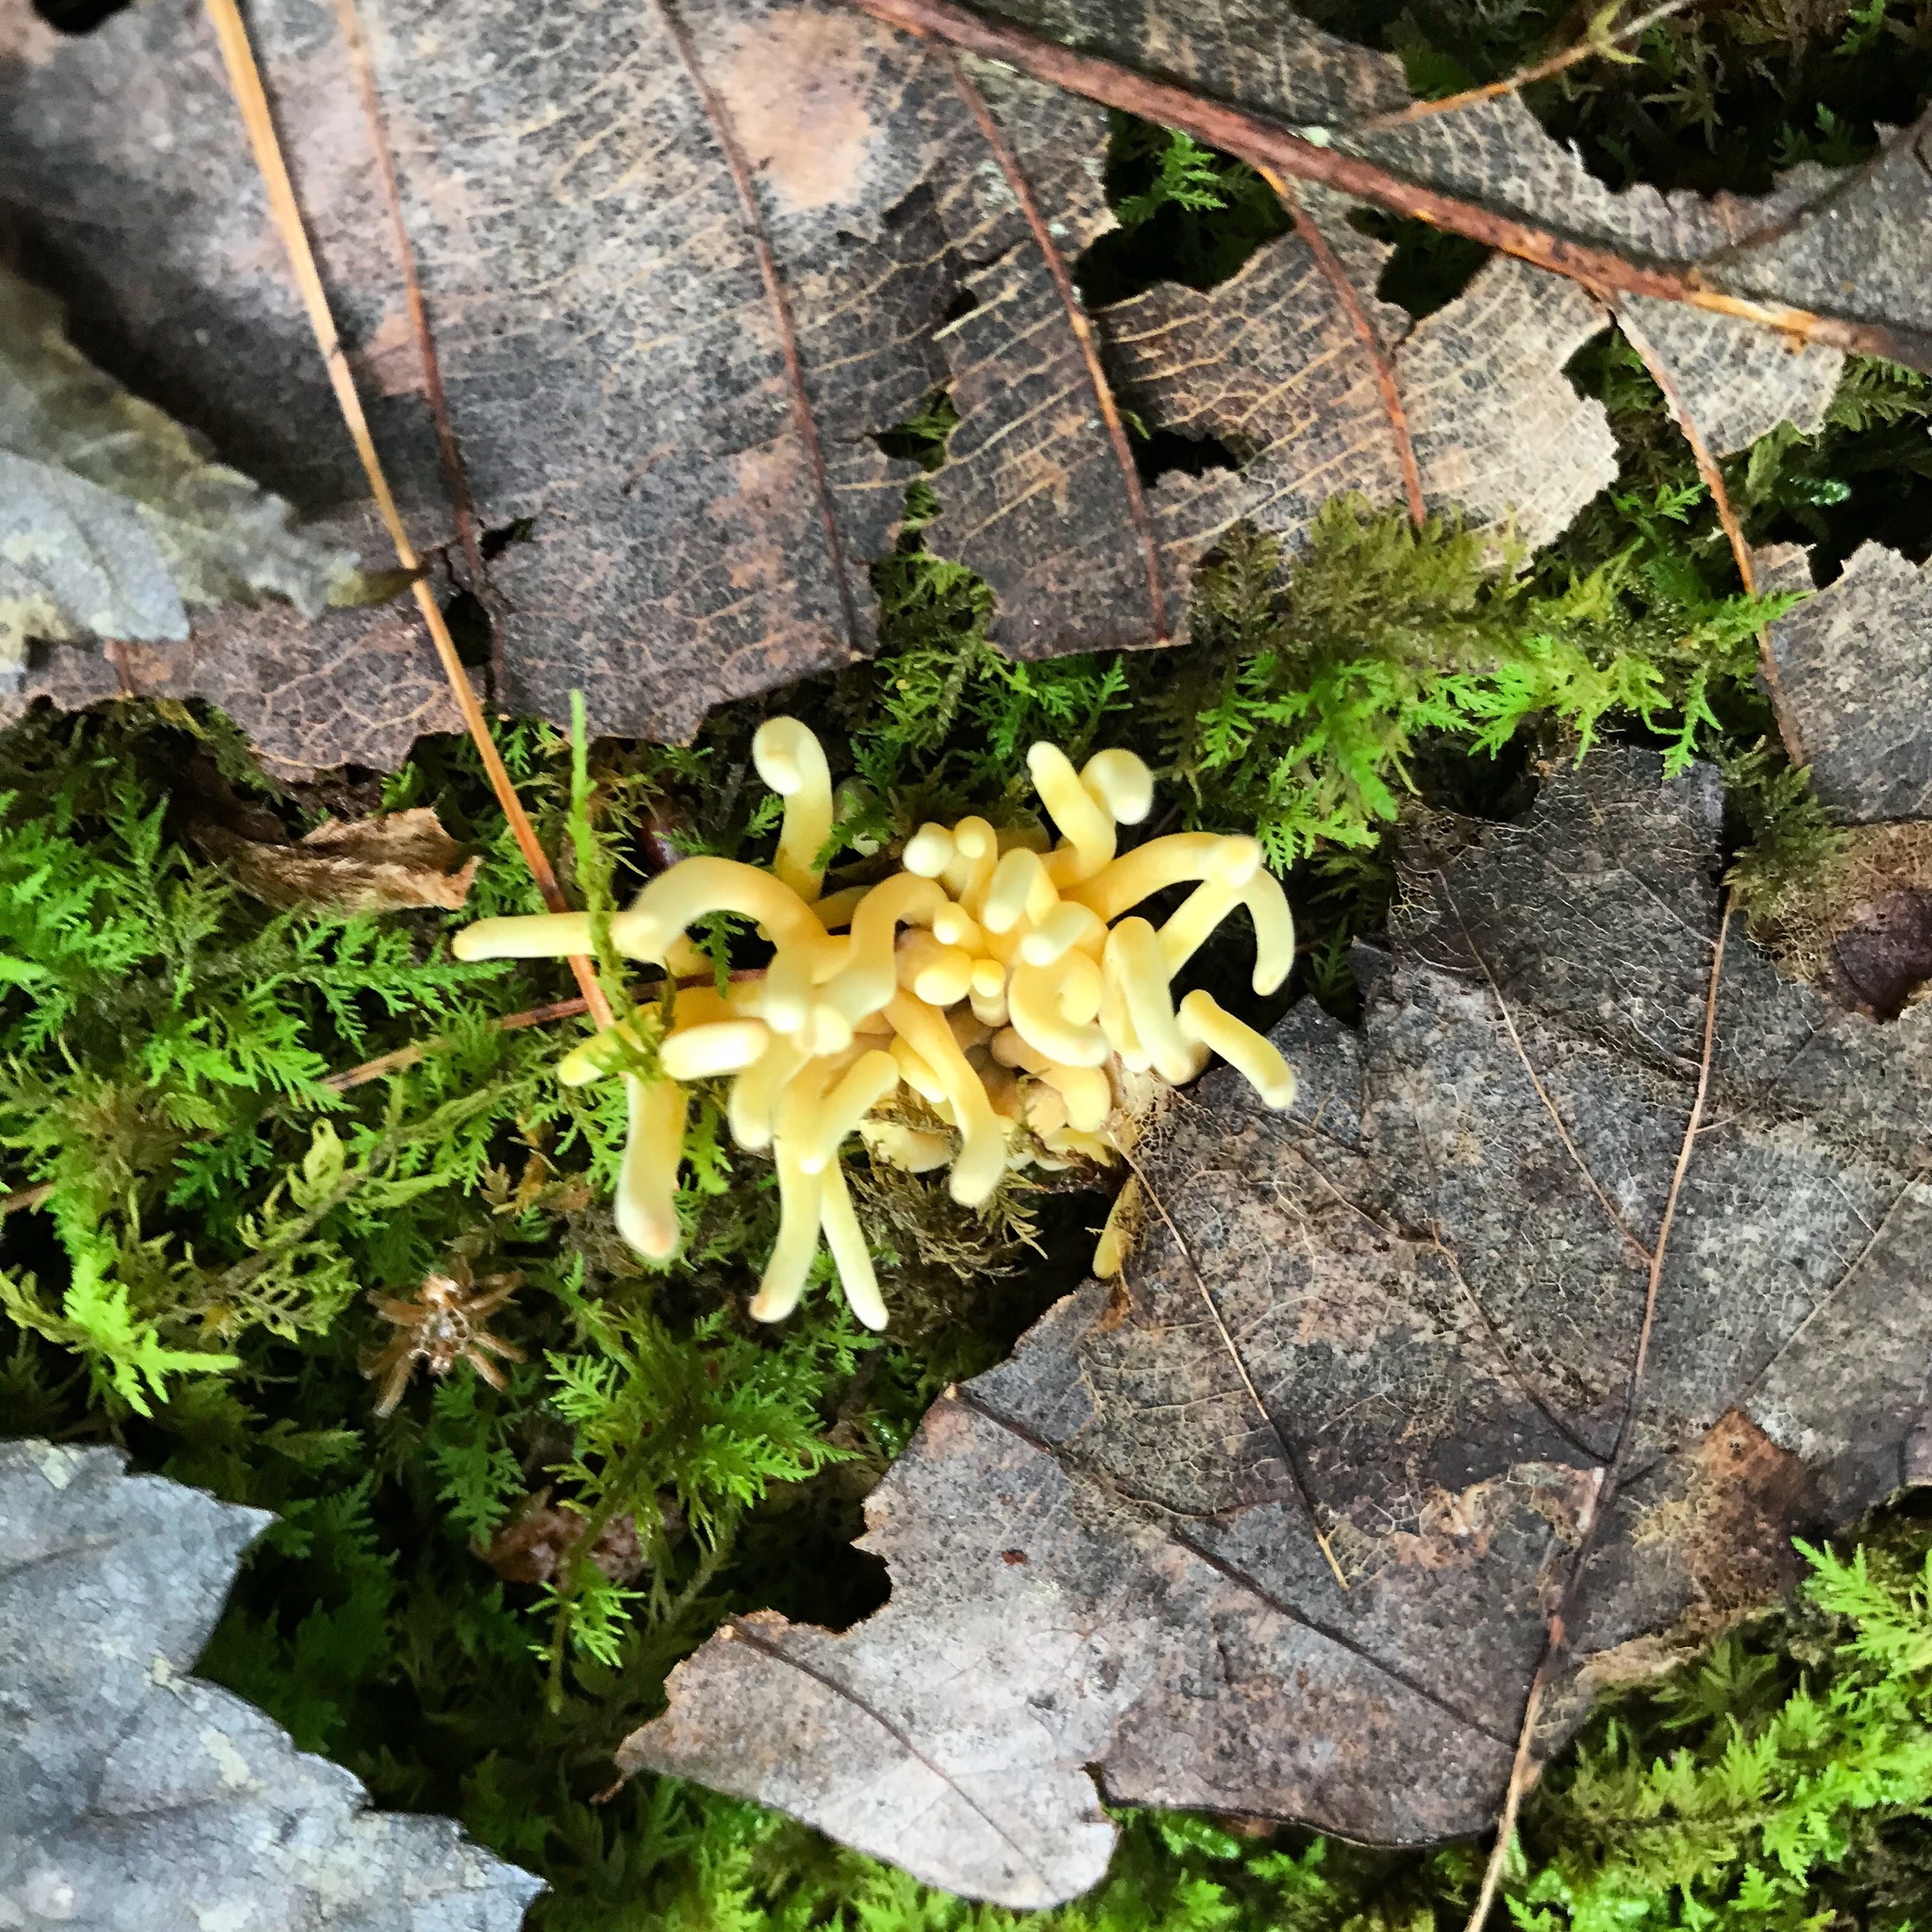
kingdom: Fungi
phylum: Basidiomycota
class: Agaricomycetes
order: Agaricales
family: Clavariaceae
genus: Clavulinopsis
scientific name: Clavulinopsis fusiformis
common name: Golden spindles
